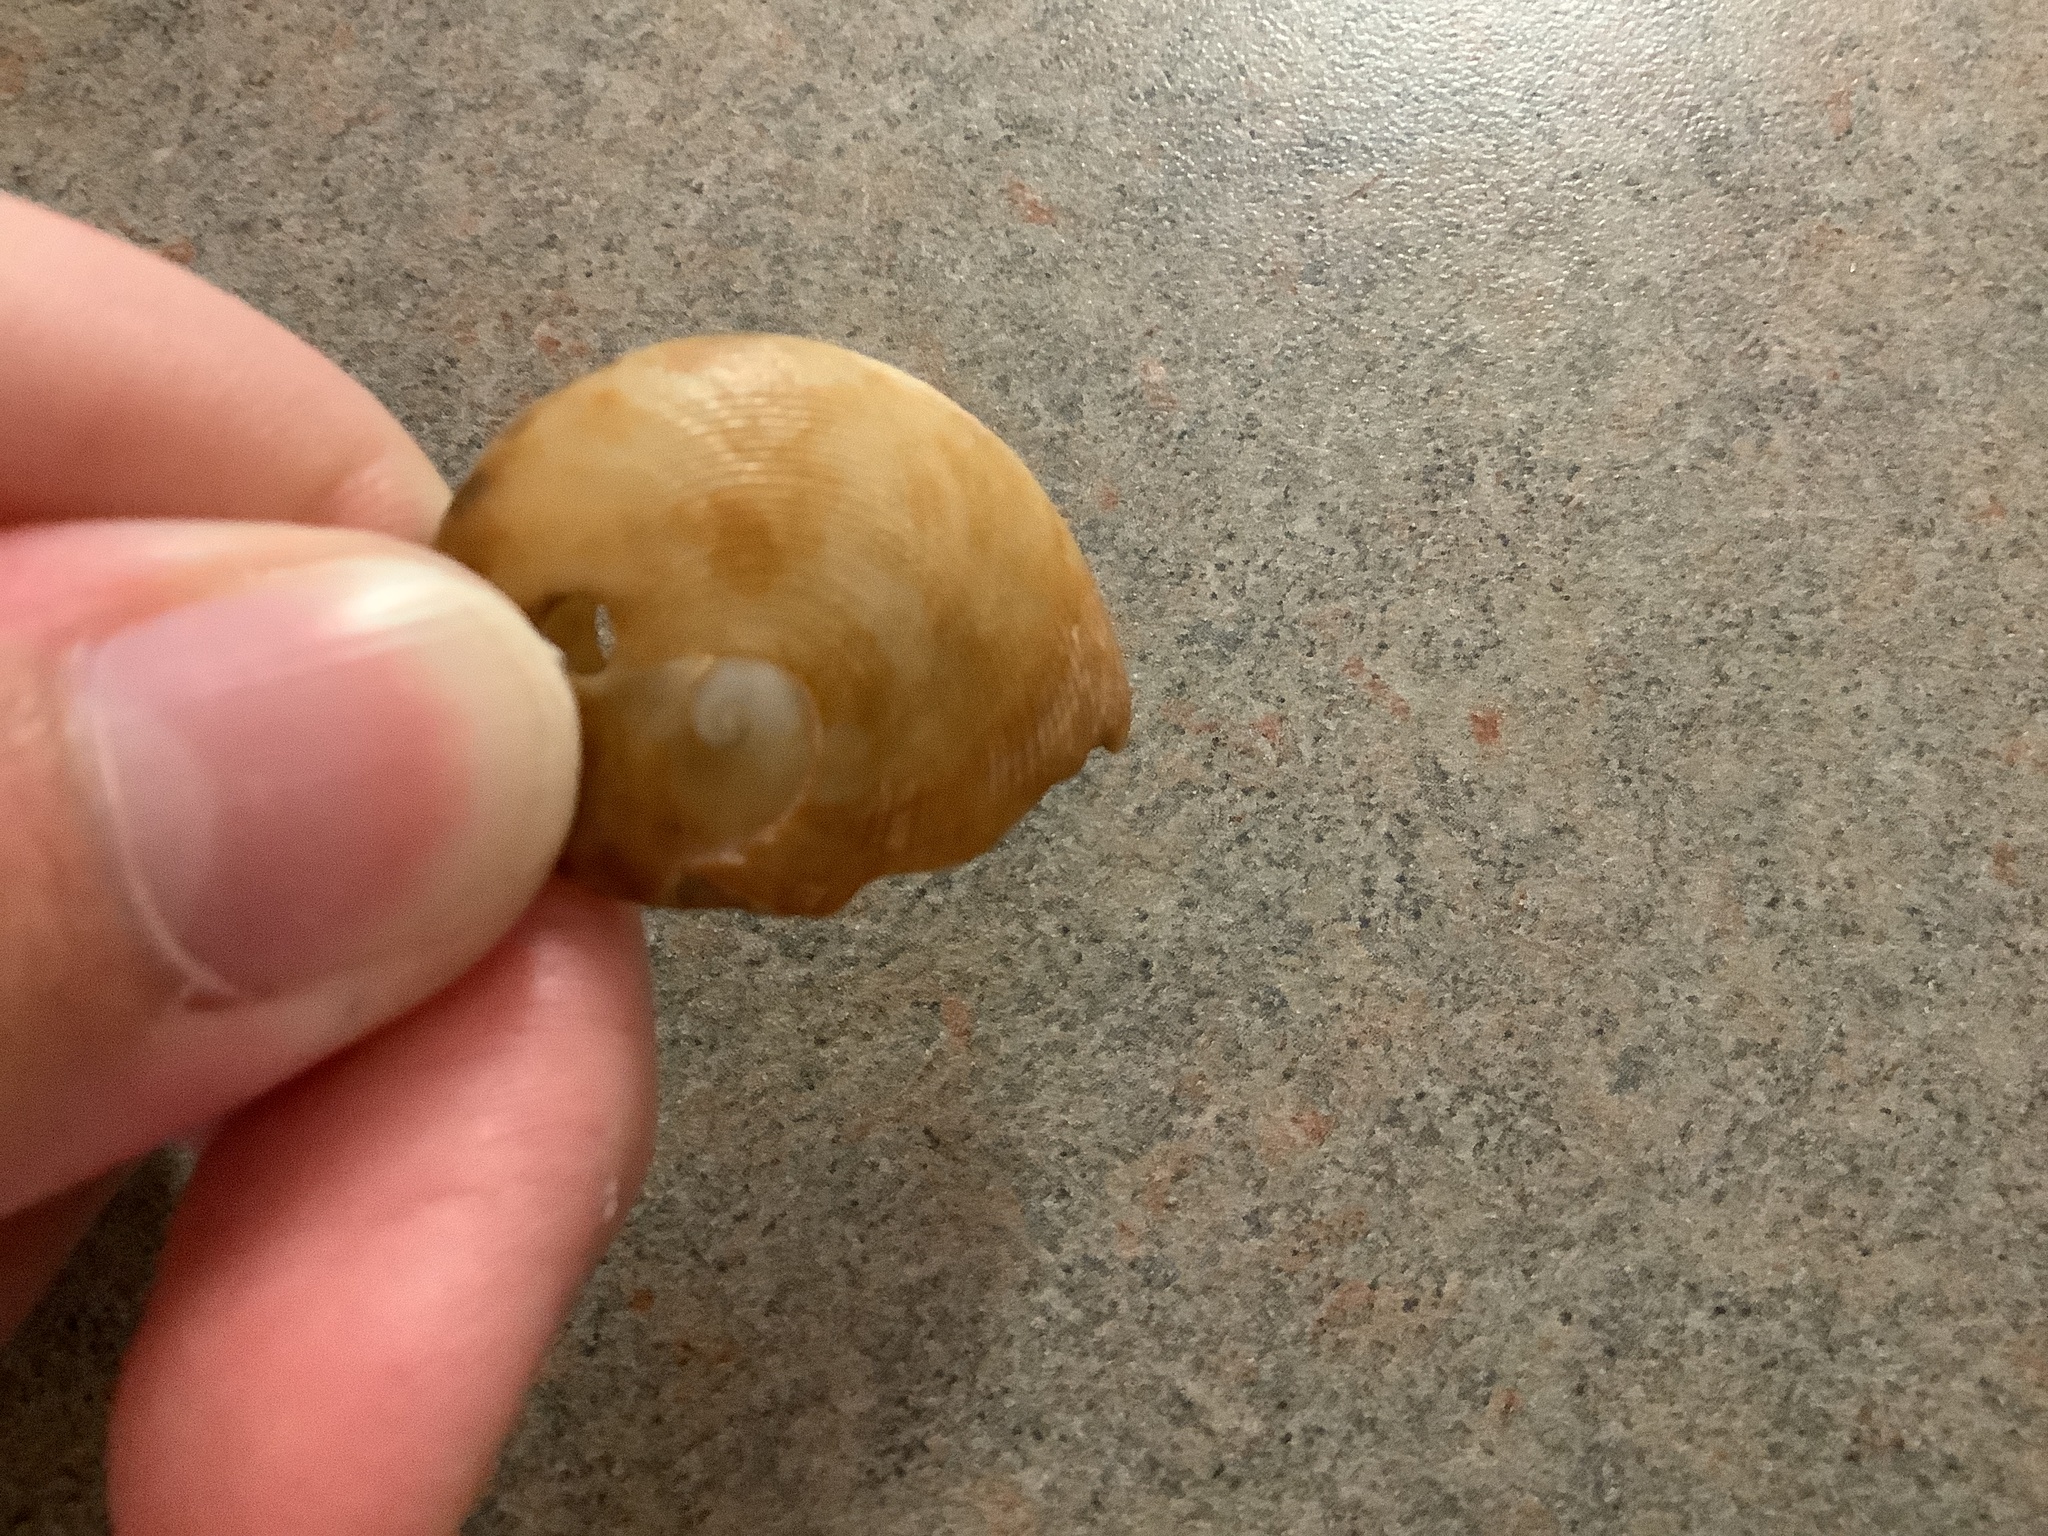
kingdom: Animalia
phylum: Mollusca
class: Gastropoda
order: Littorinimorpha
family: Naticidae
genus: Sinum
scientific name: Sinum perspectivum
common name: White baby ear
